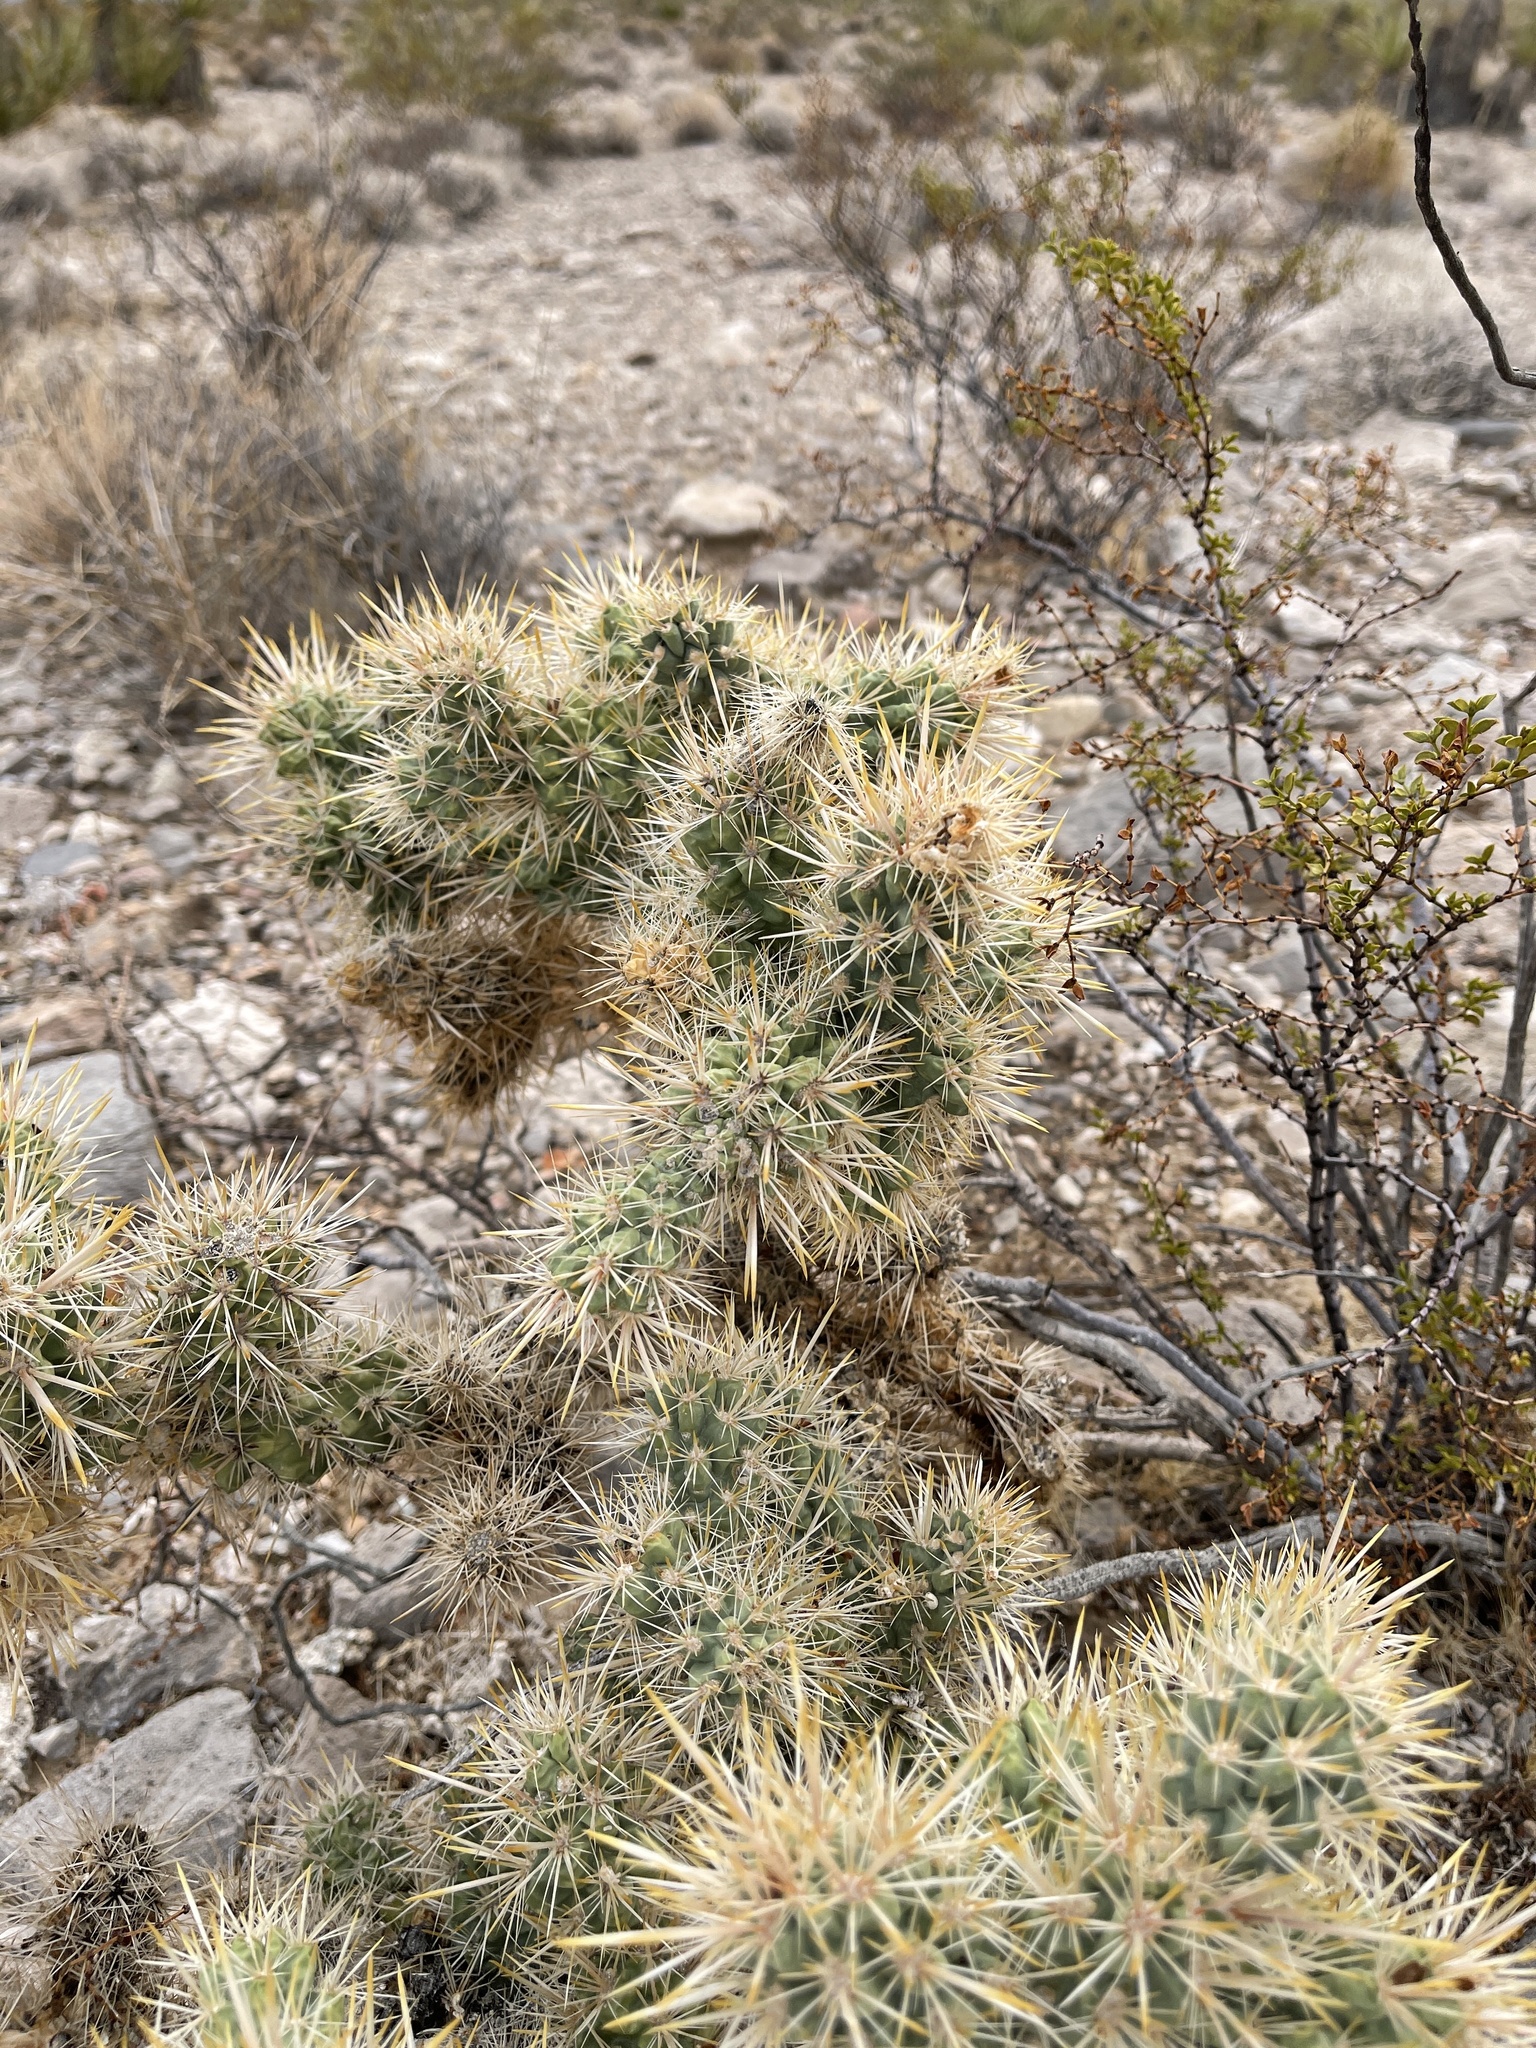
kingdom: Plantae
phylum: Tracheophyta
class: Magnoliopsida
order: Caryophyllales
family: Cactaceae
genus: Cylindropuntia
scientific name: Cylindropuntia echinocarpa
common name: Ground cholla
